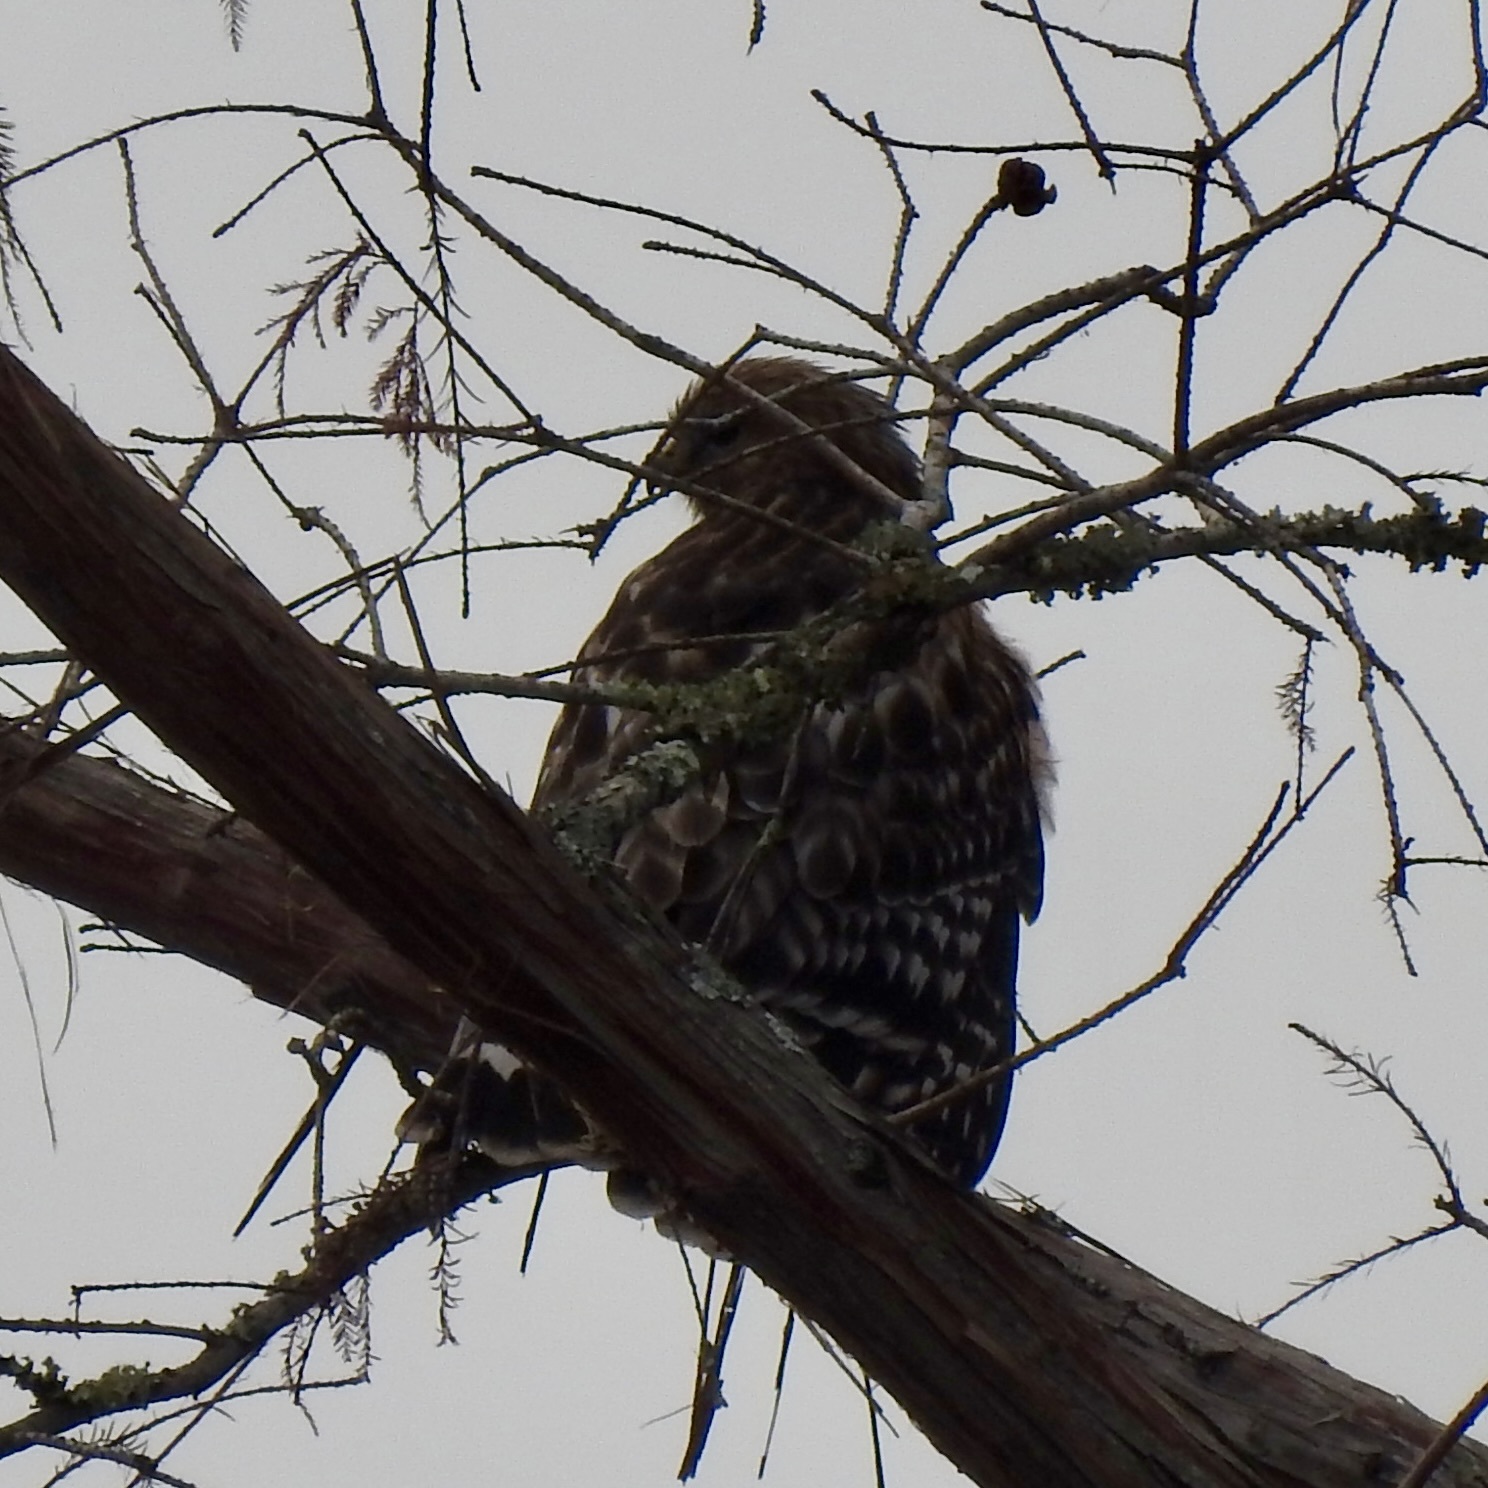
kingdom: Animalia
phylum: Chordata
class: Aves
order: Accipitriformes
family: Accipitridae
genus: Buteo
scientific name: Buteo lineatus
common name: Red-shouldered hawk
